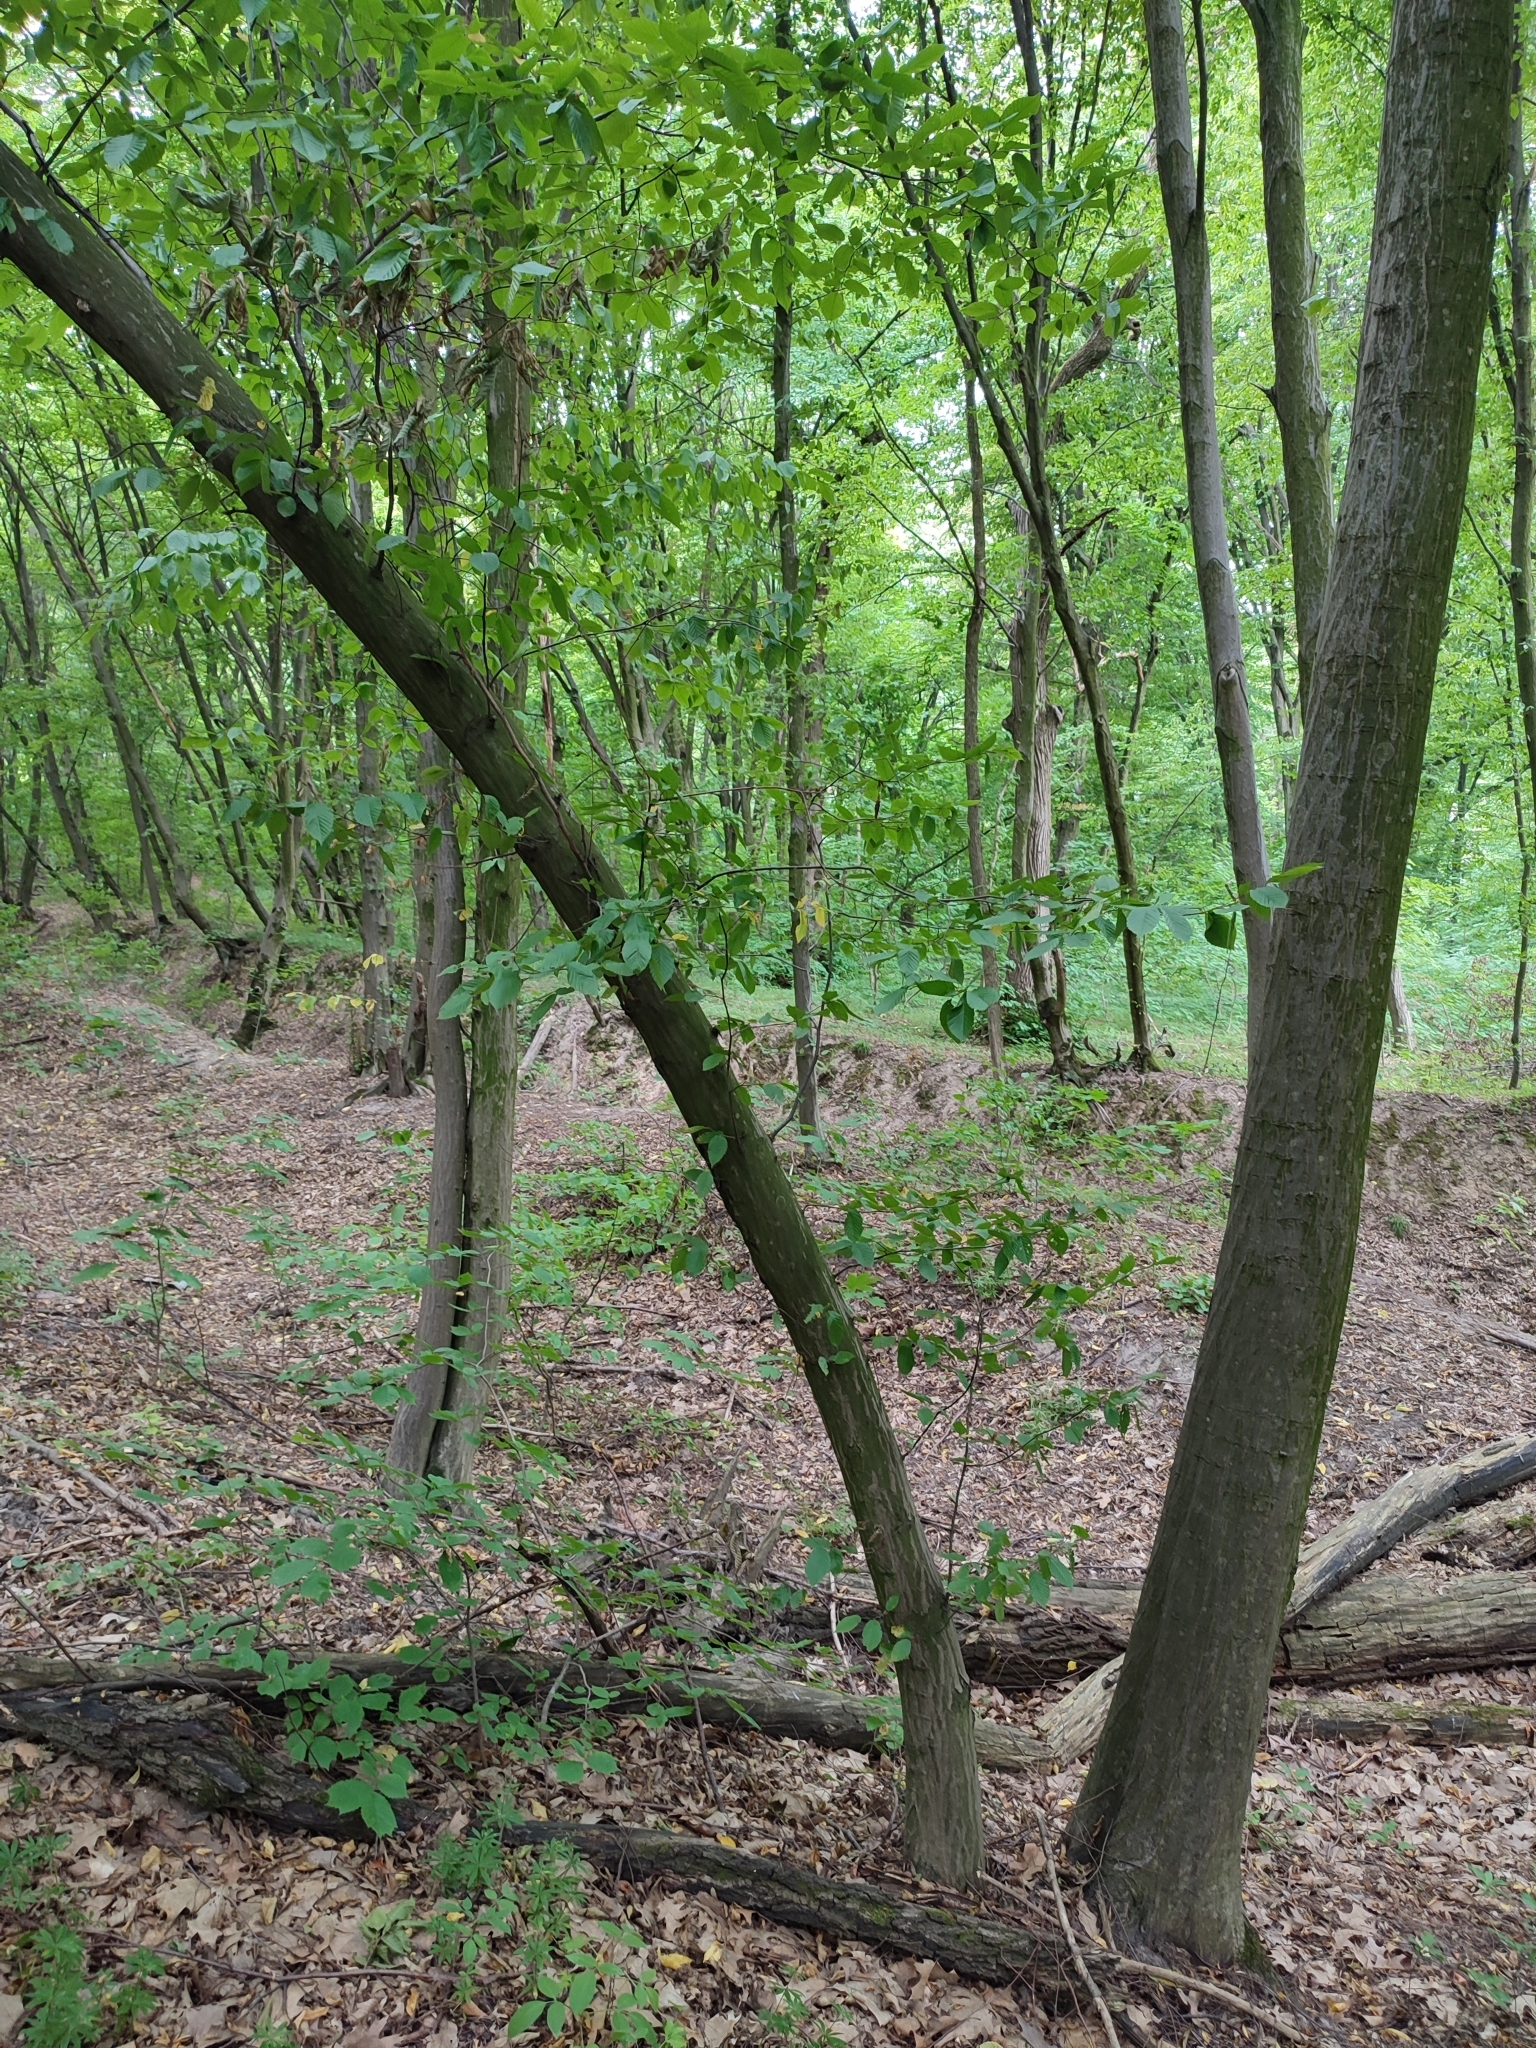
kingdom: Plantae
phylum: Tracheophyta
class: Magnoliopsida
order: Fagales
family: Betulaceae
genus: Carpinus
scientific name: Carpinus betulus
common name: Hornbeam
